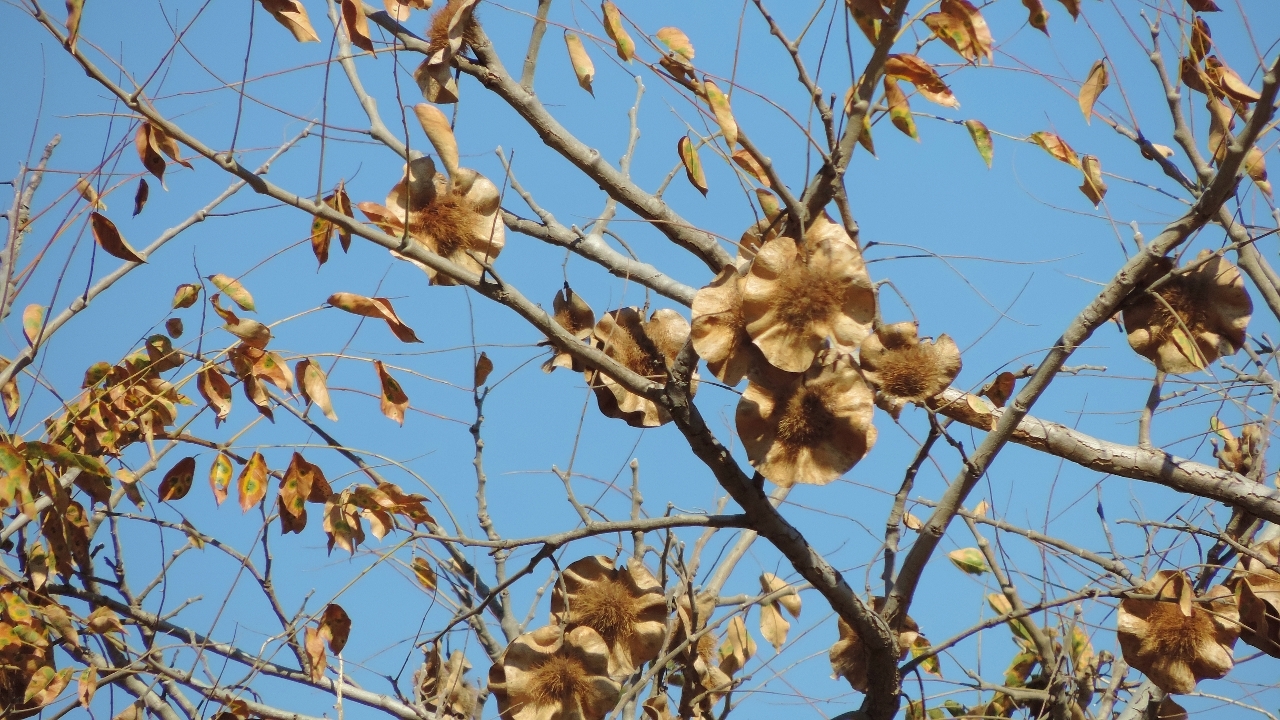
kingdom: Plantae
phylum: Tracheophyta
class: Magnoliopsida
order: Fabales
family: Fabaceae
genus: Pterocarpus
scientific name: Pterocarpus angolensis
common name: Bloodwood tree
